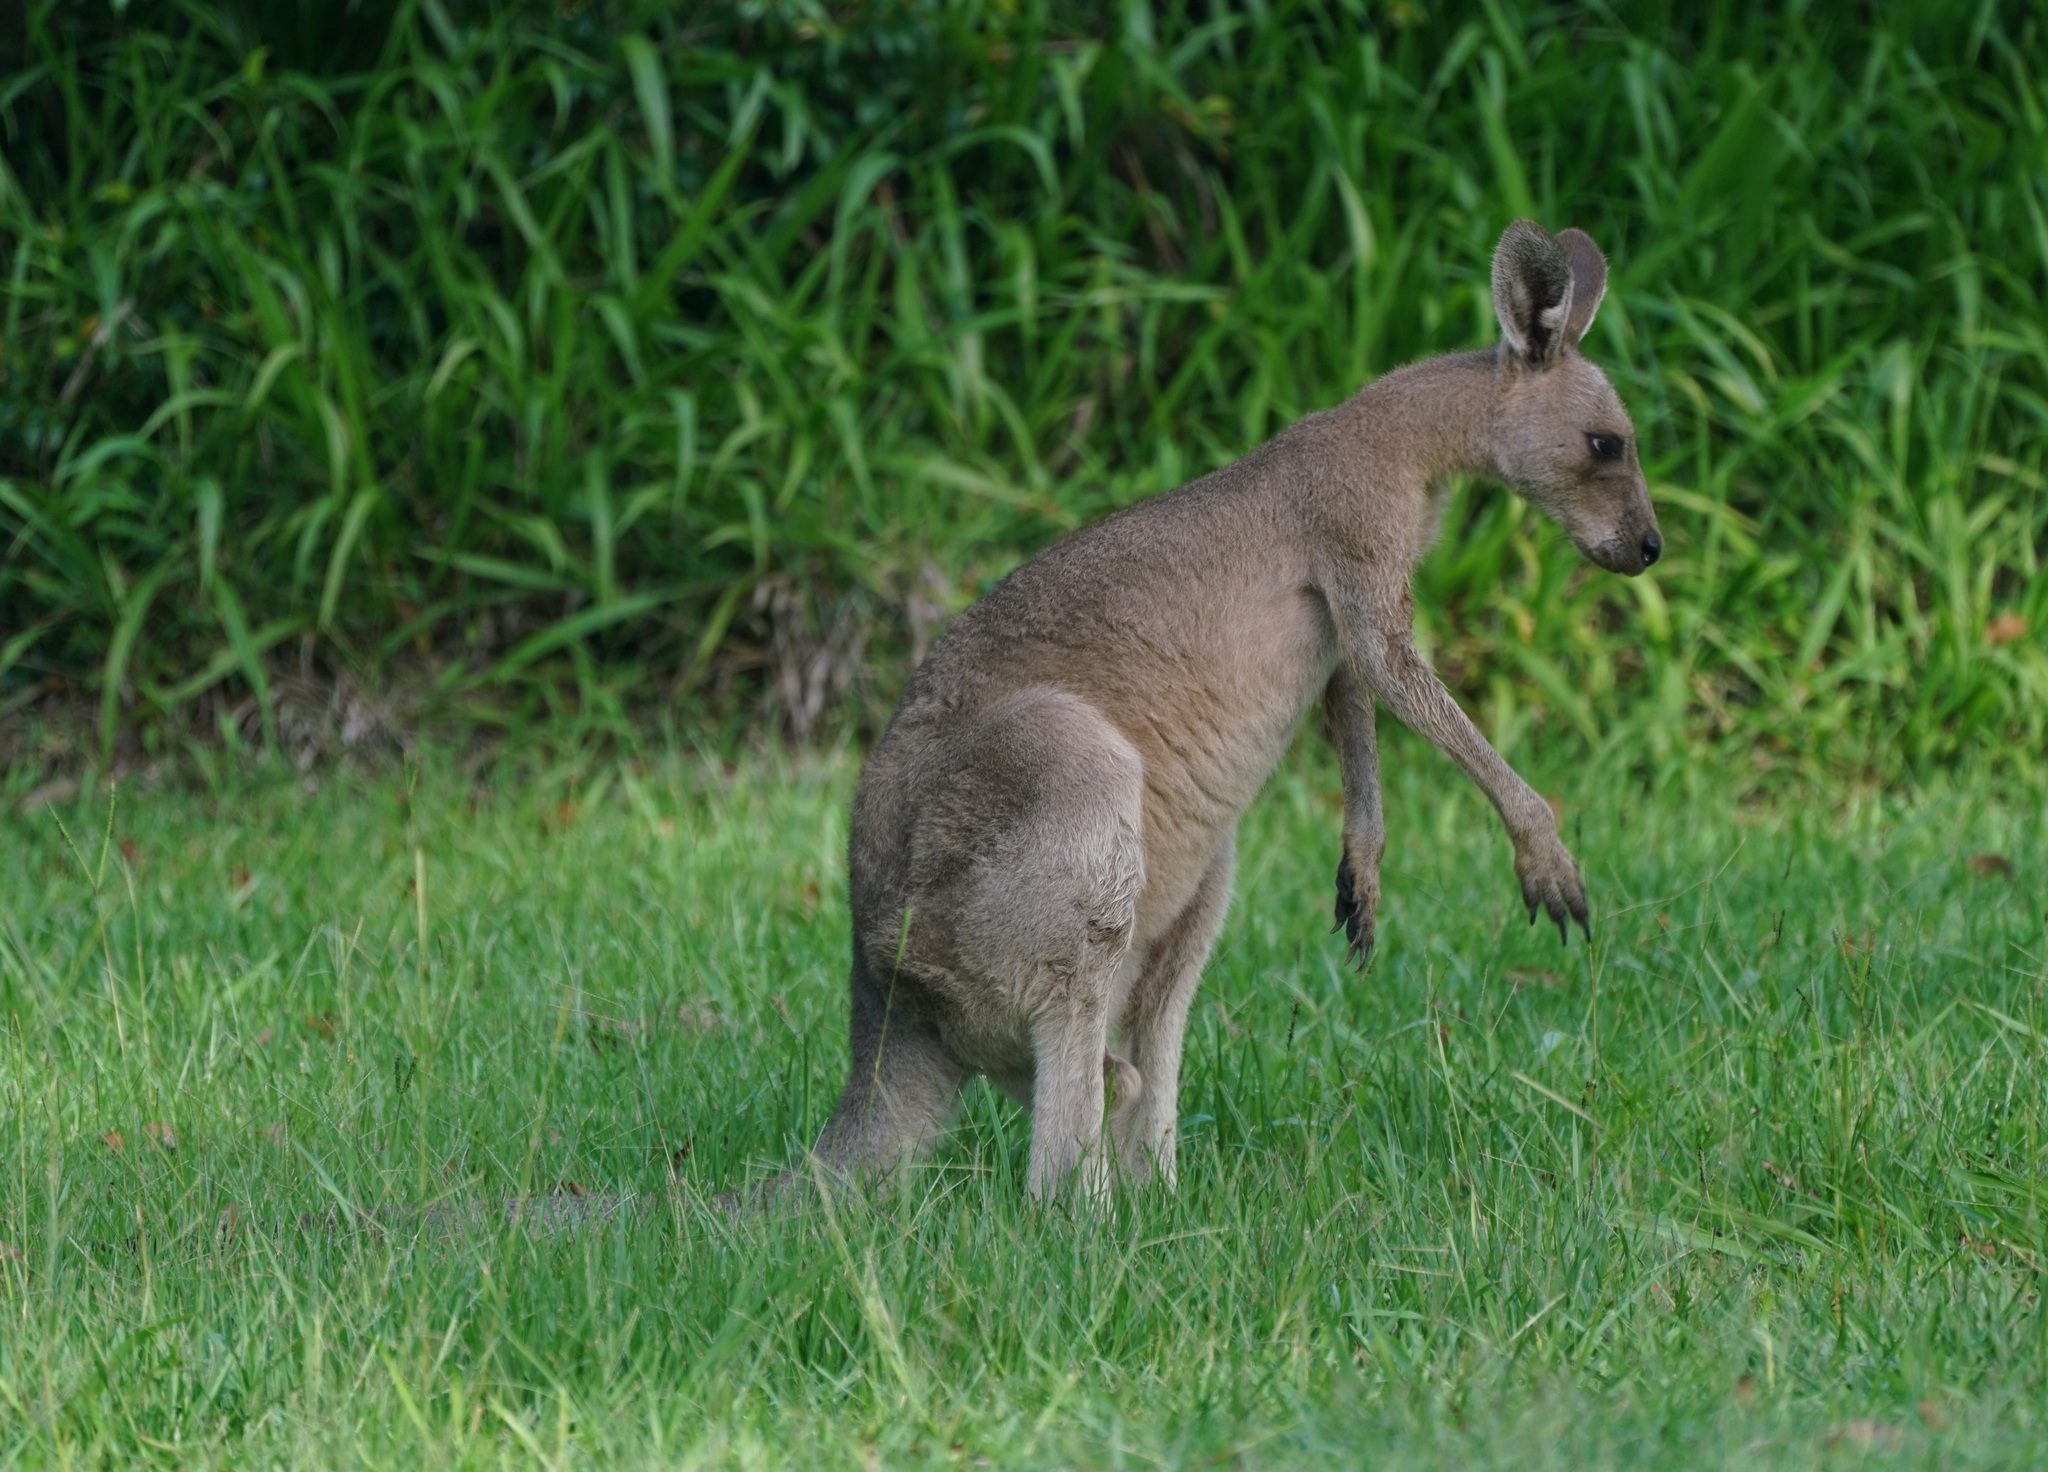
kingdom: Animalia
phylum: Chordata
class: Mammalia
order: Diprotodontia
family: Macropodidae
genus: Macropus
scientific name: Macropus giganteus
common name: Eastern grey kangaroo
